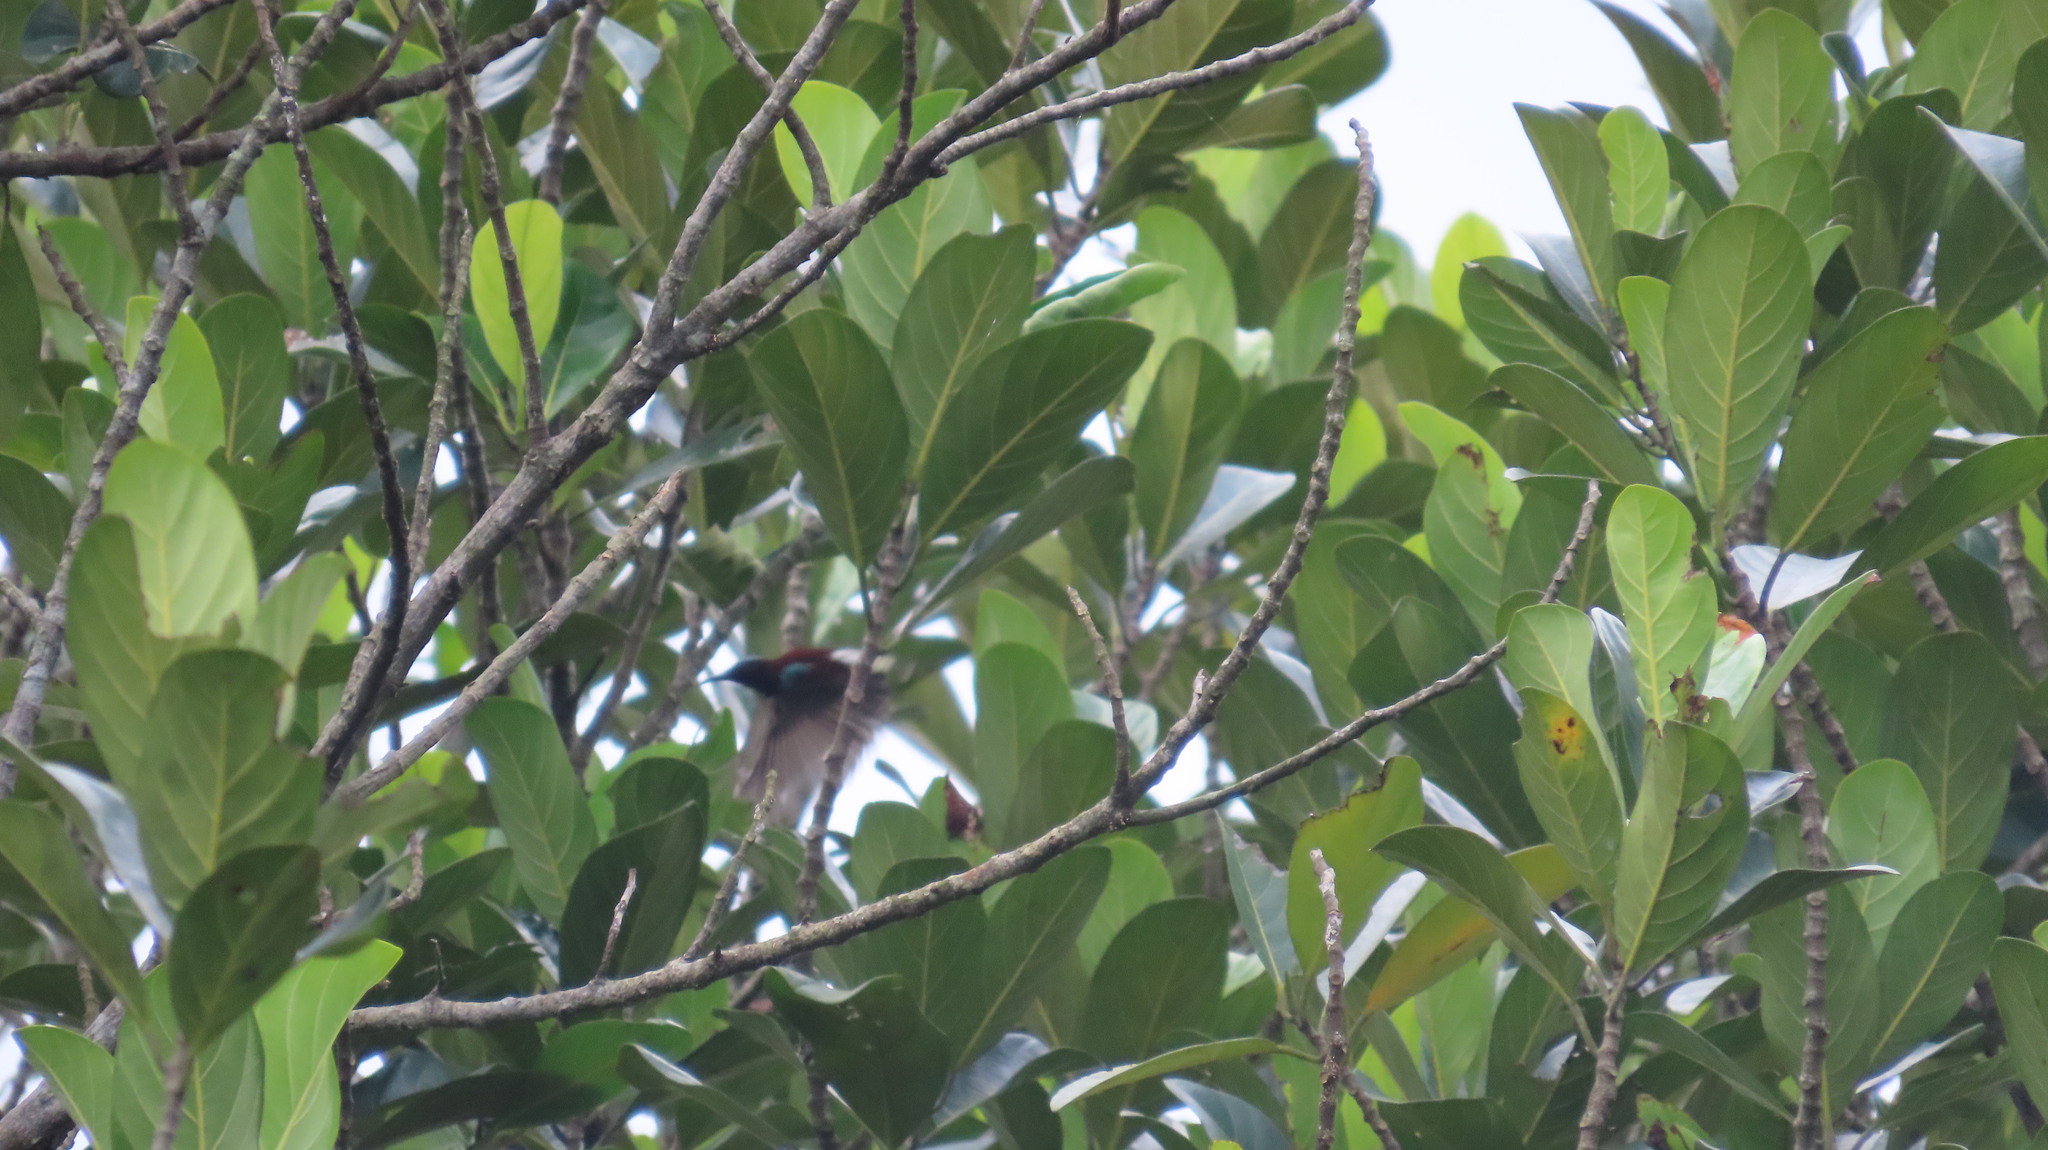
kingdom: Animalia
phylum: Chordata
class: Aves
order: Passeriformes
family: Nectariniidae
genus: Leptocoma
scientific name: Leptocoma zeylonica
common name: Purple-rumped sunbird
